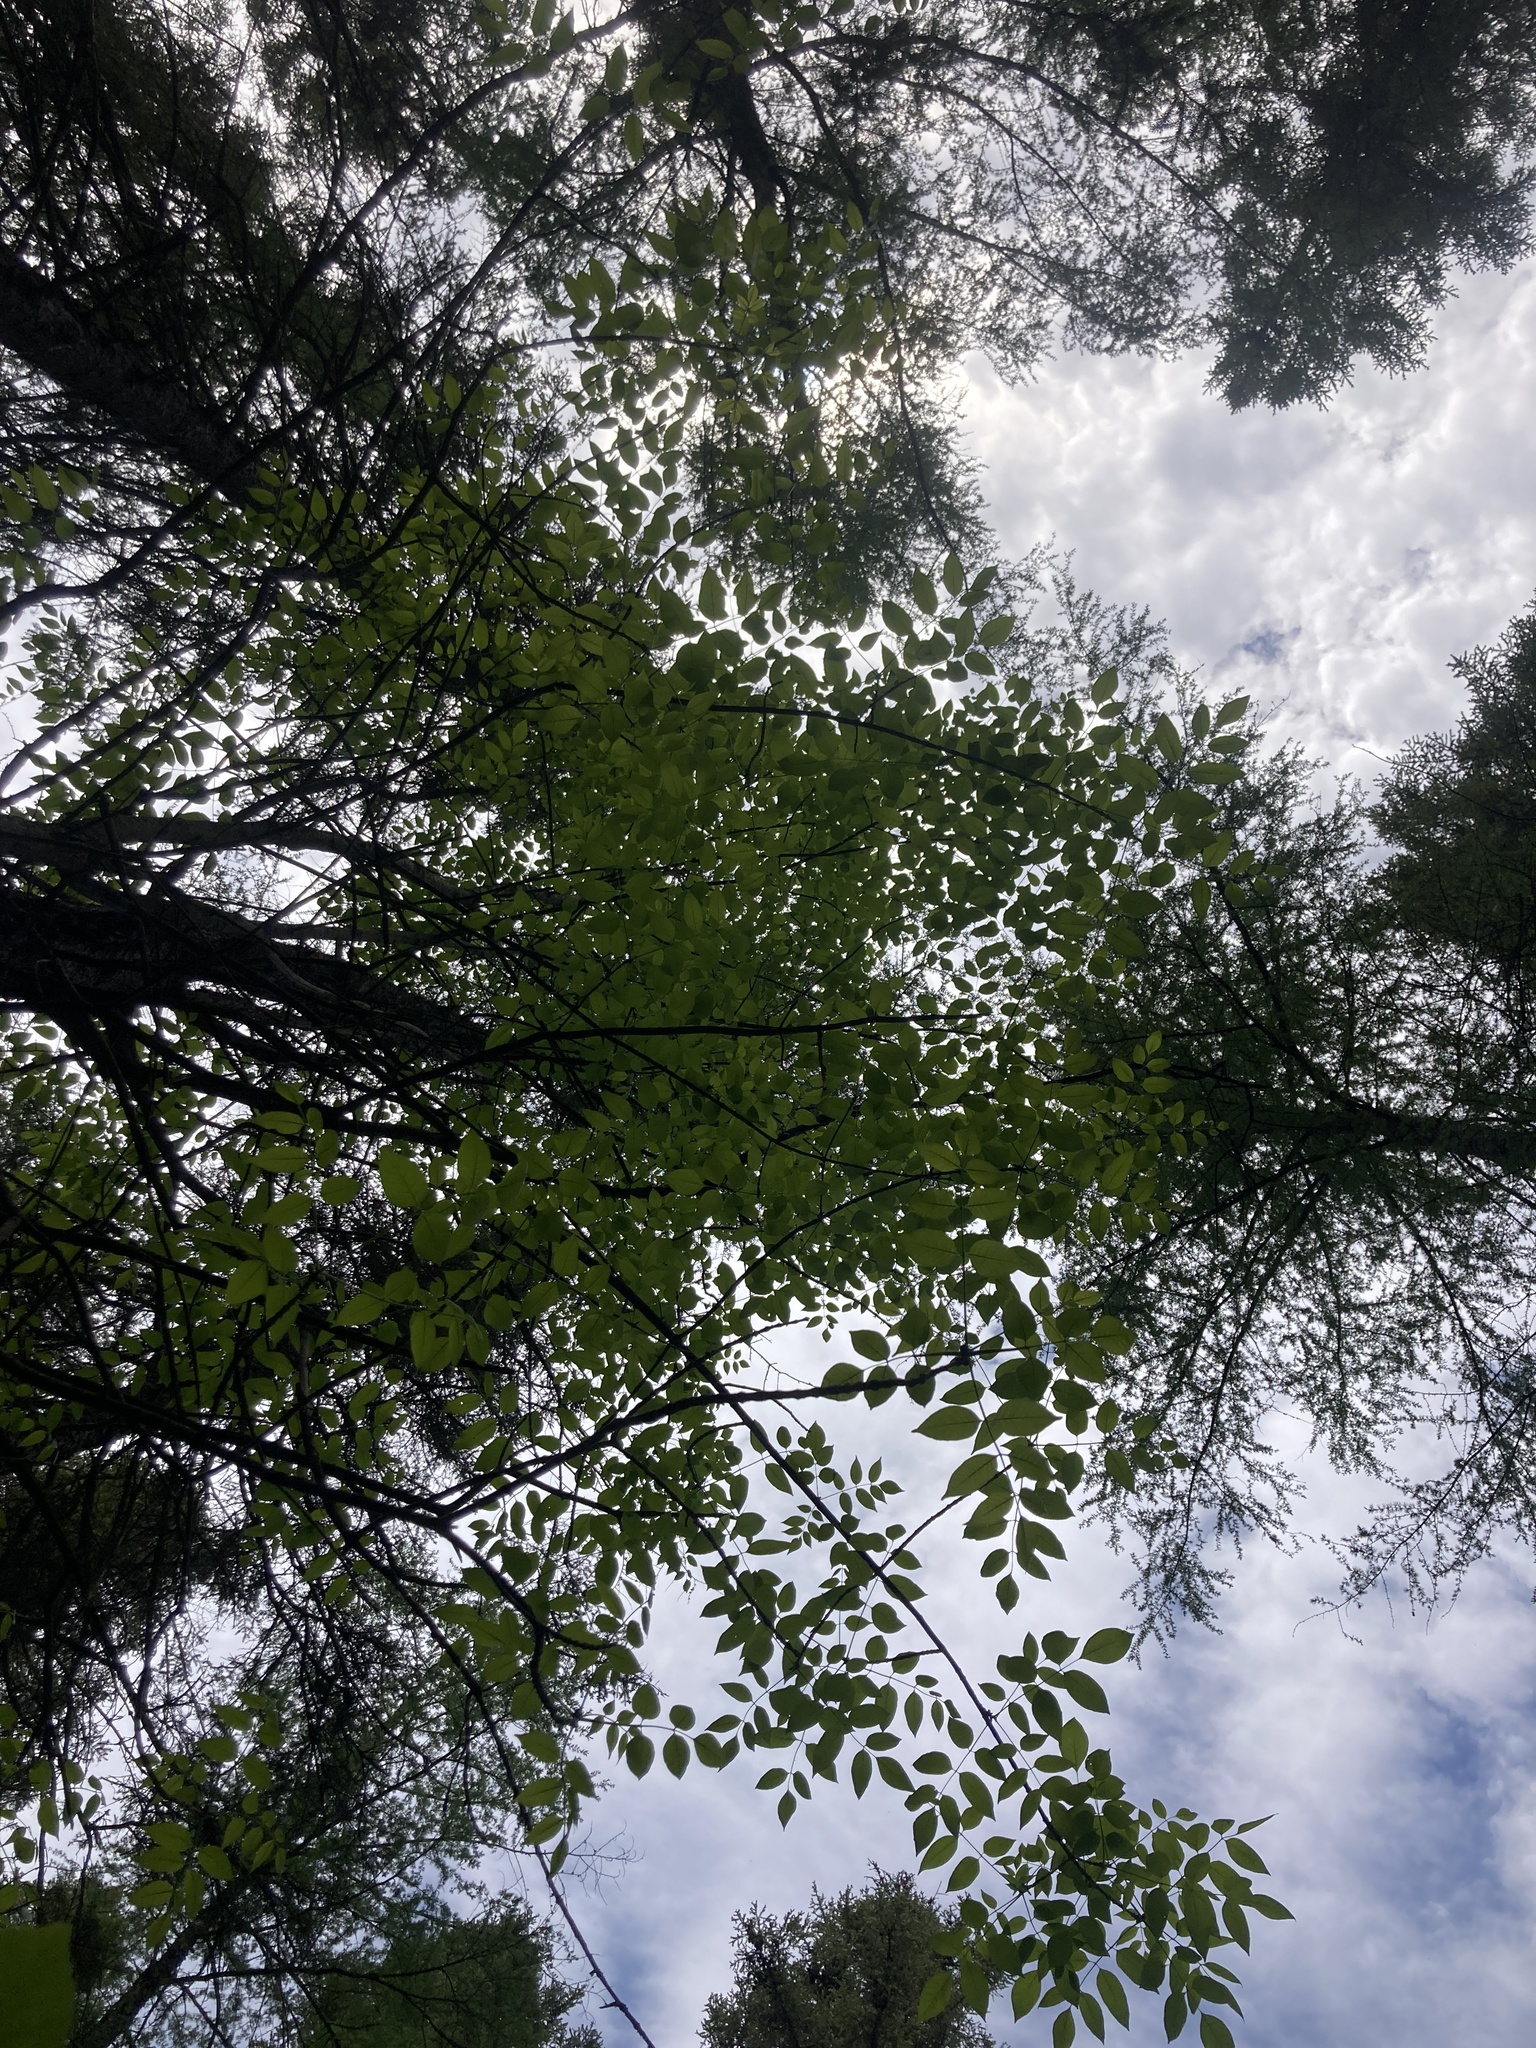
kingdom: Plantae
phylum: Tracheophyta
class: Magnoliopsida
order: Lamiales
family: Oleaceae
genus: Fraxinus
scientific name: Fraxinus nigra
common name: Black ash
